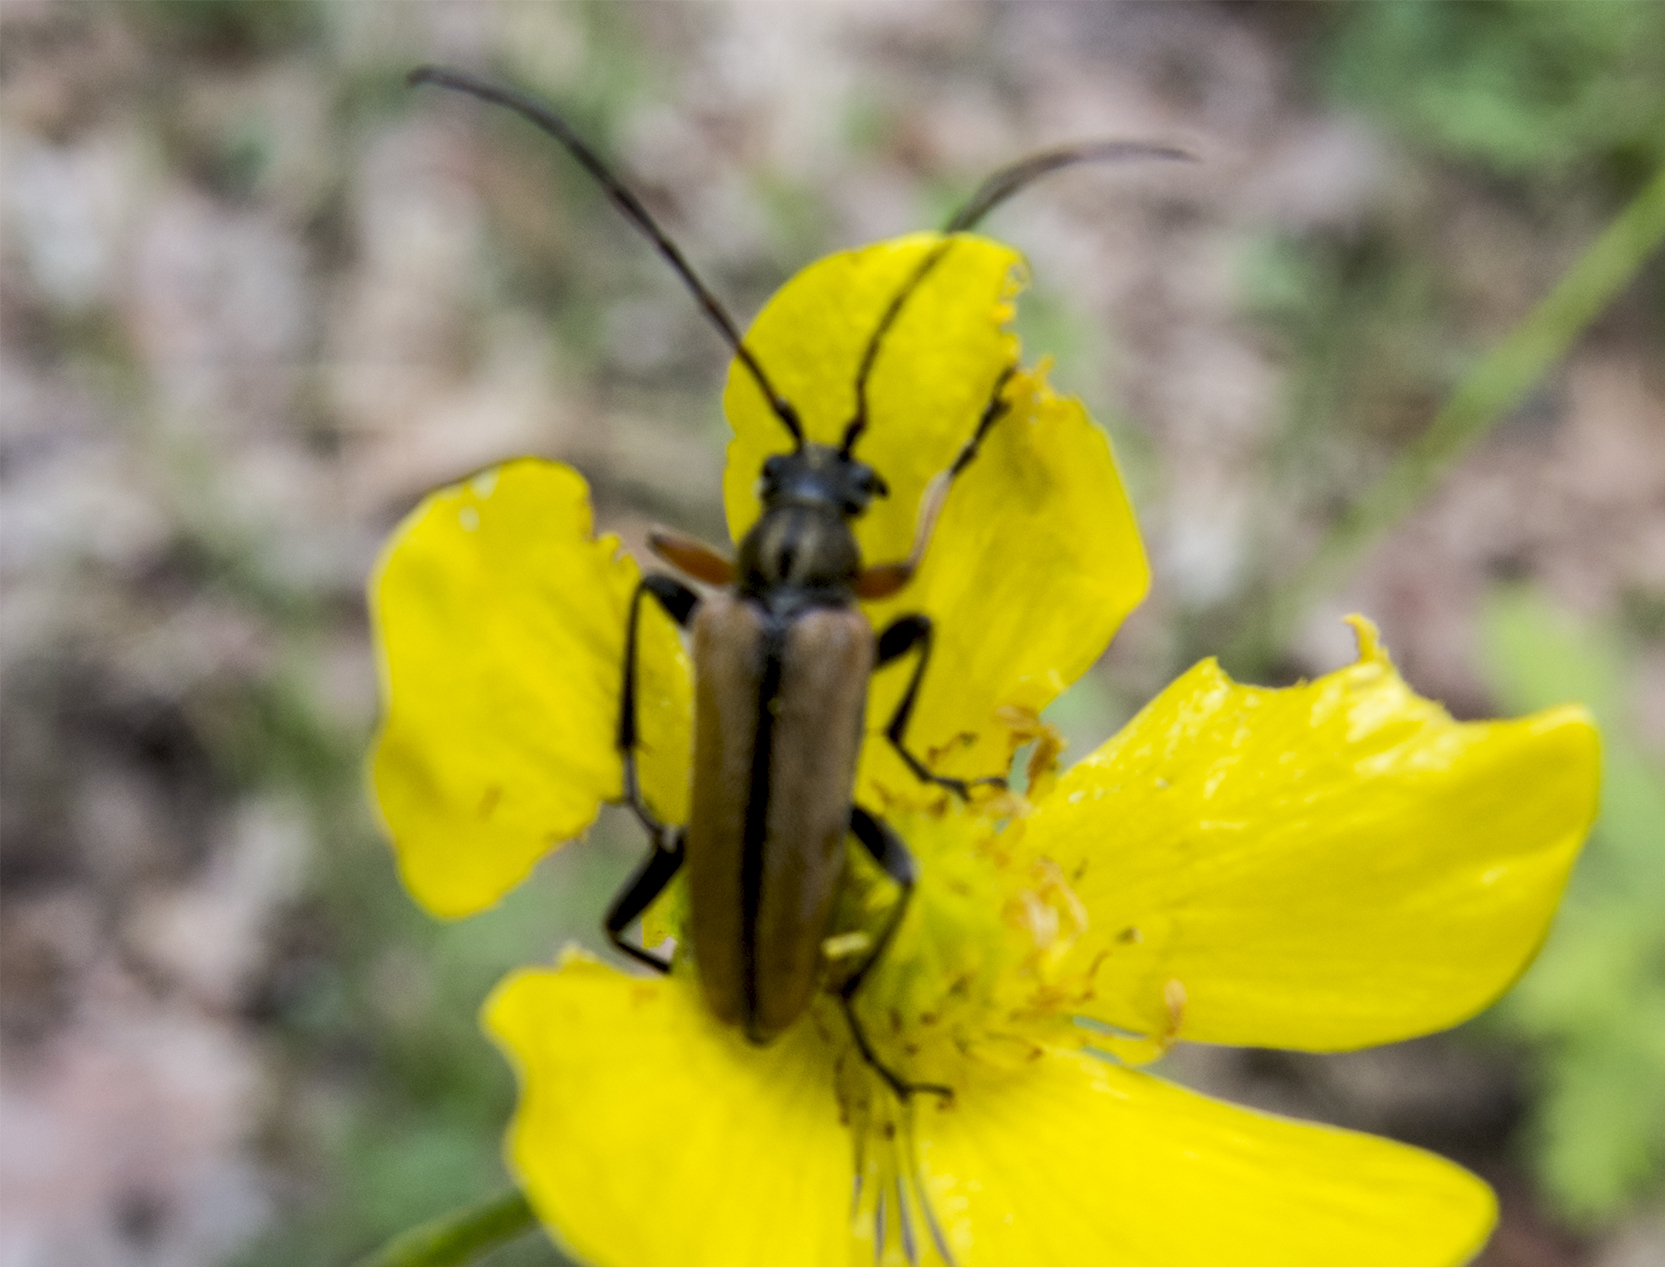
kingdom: Animalia
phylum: Arthropoda
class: Insecta
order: Coleoptera
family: Cerambycidae
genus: Cortodera
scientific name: Cortodera flavimana
